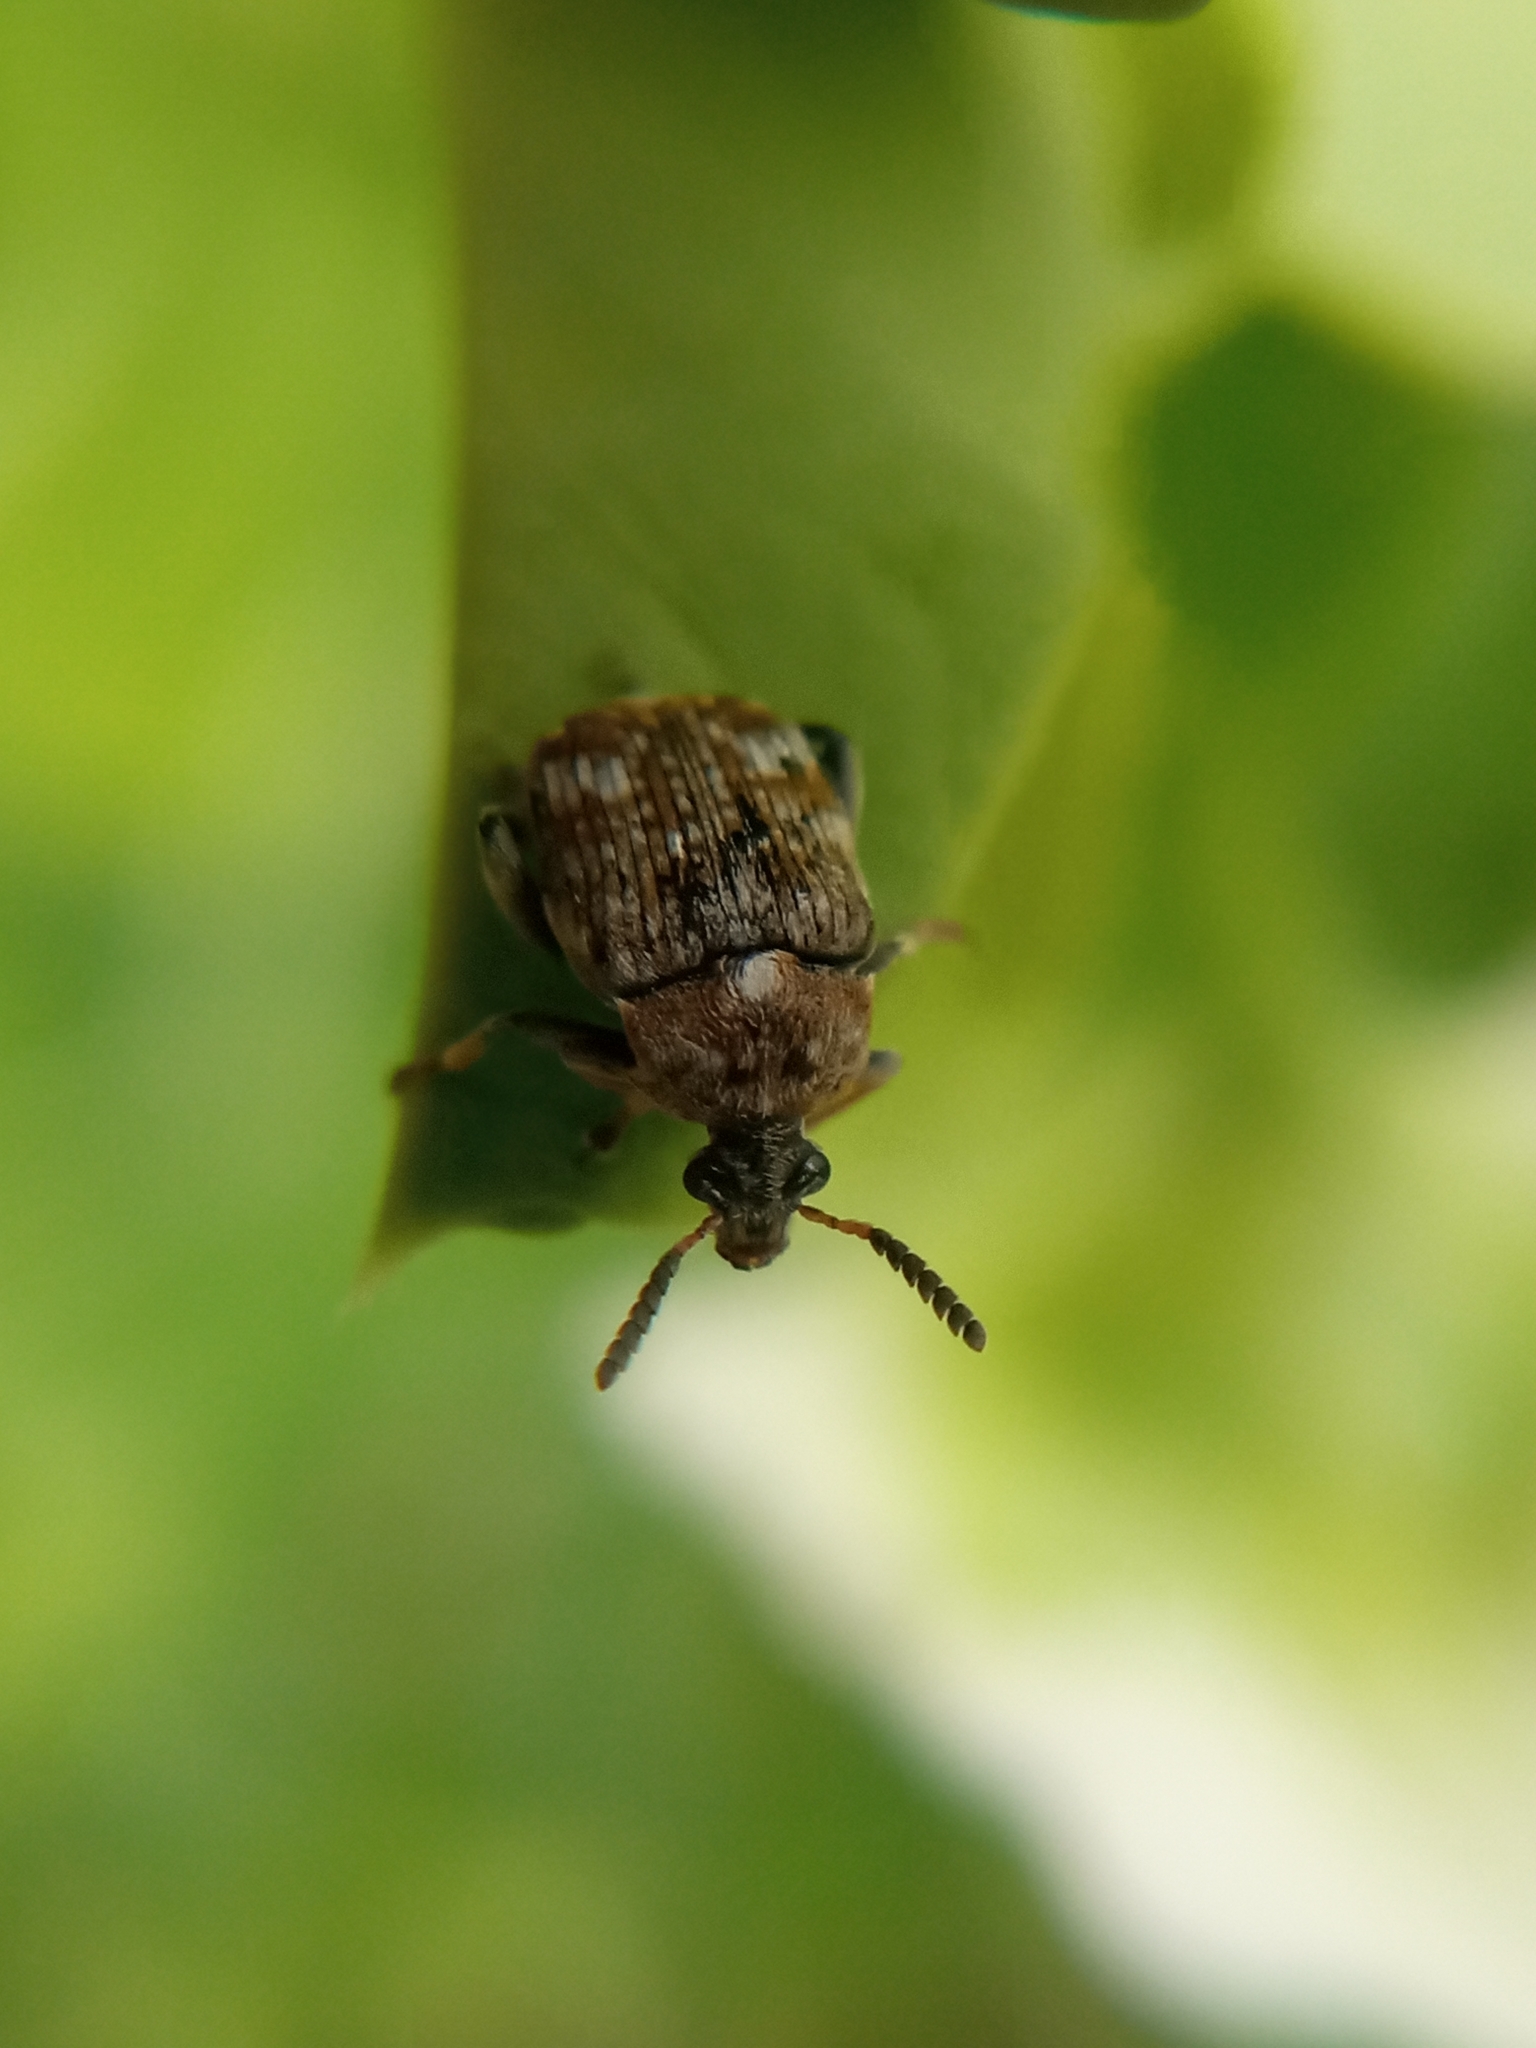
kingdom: Animalia
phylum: Arthropoda
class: Insecta
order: Coleoptera
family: Chrysomelidae
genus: Bruchus
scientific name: Bruchus pisorum
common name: Pea weevil
